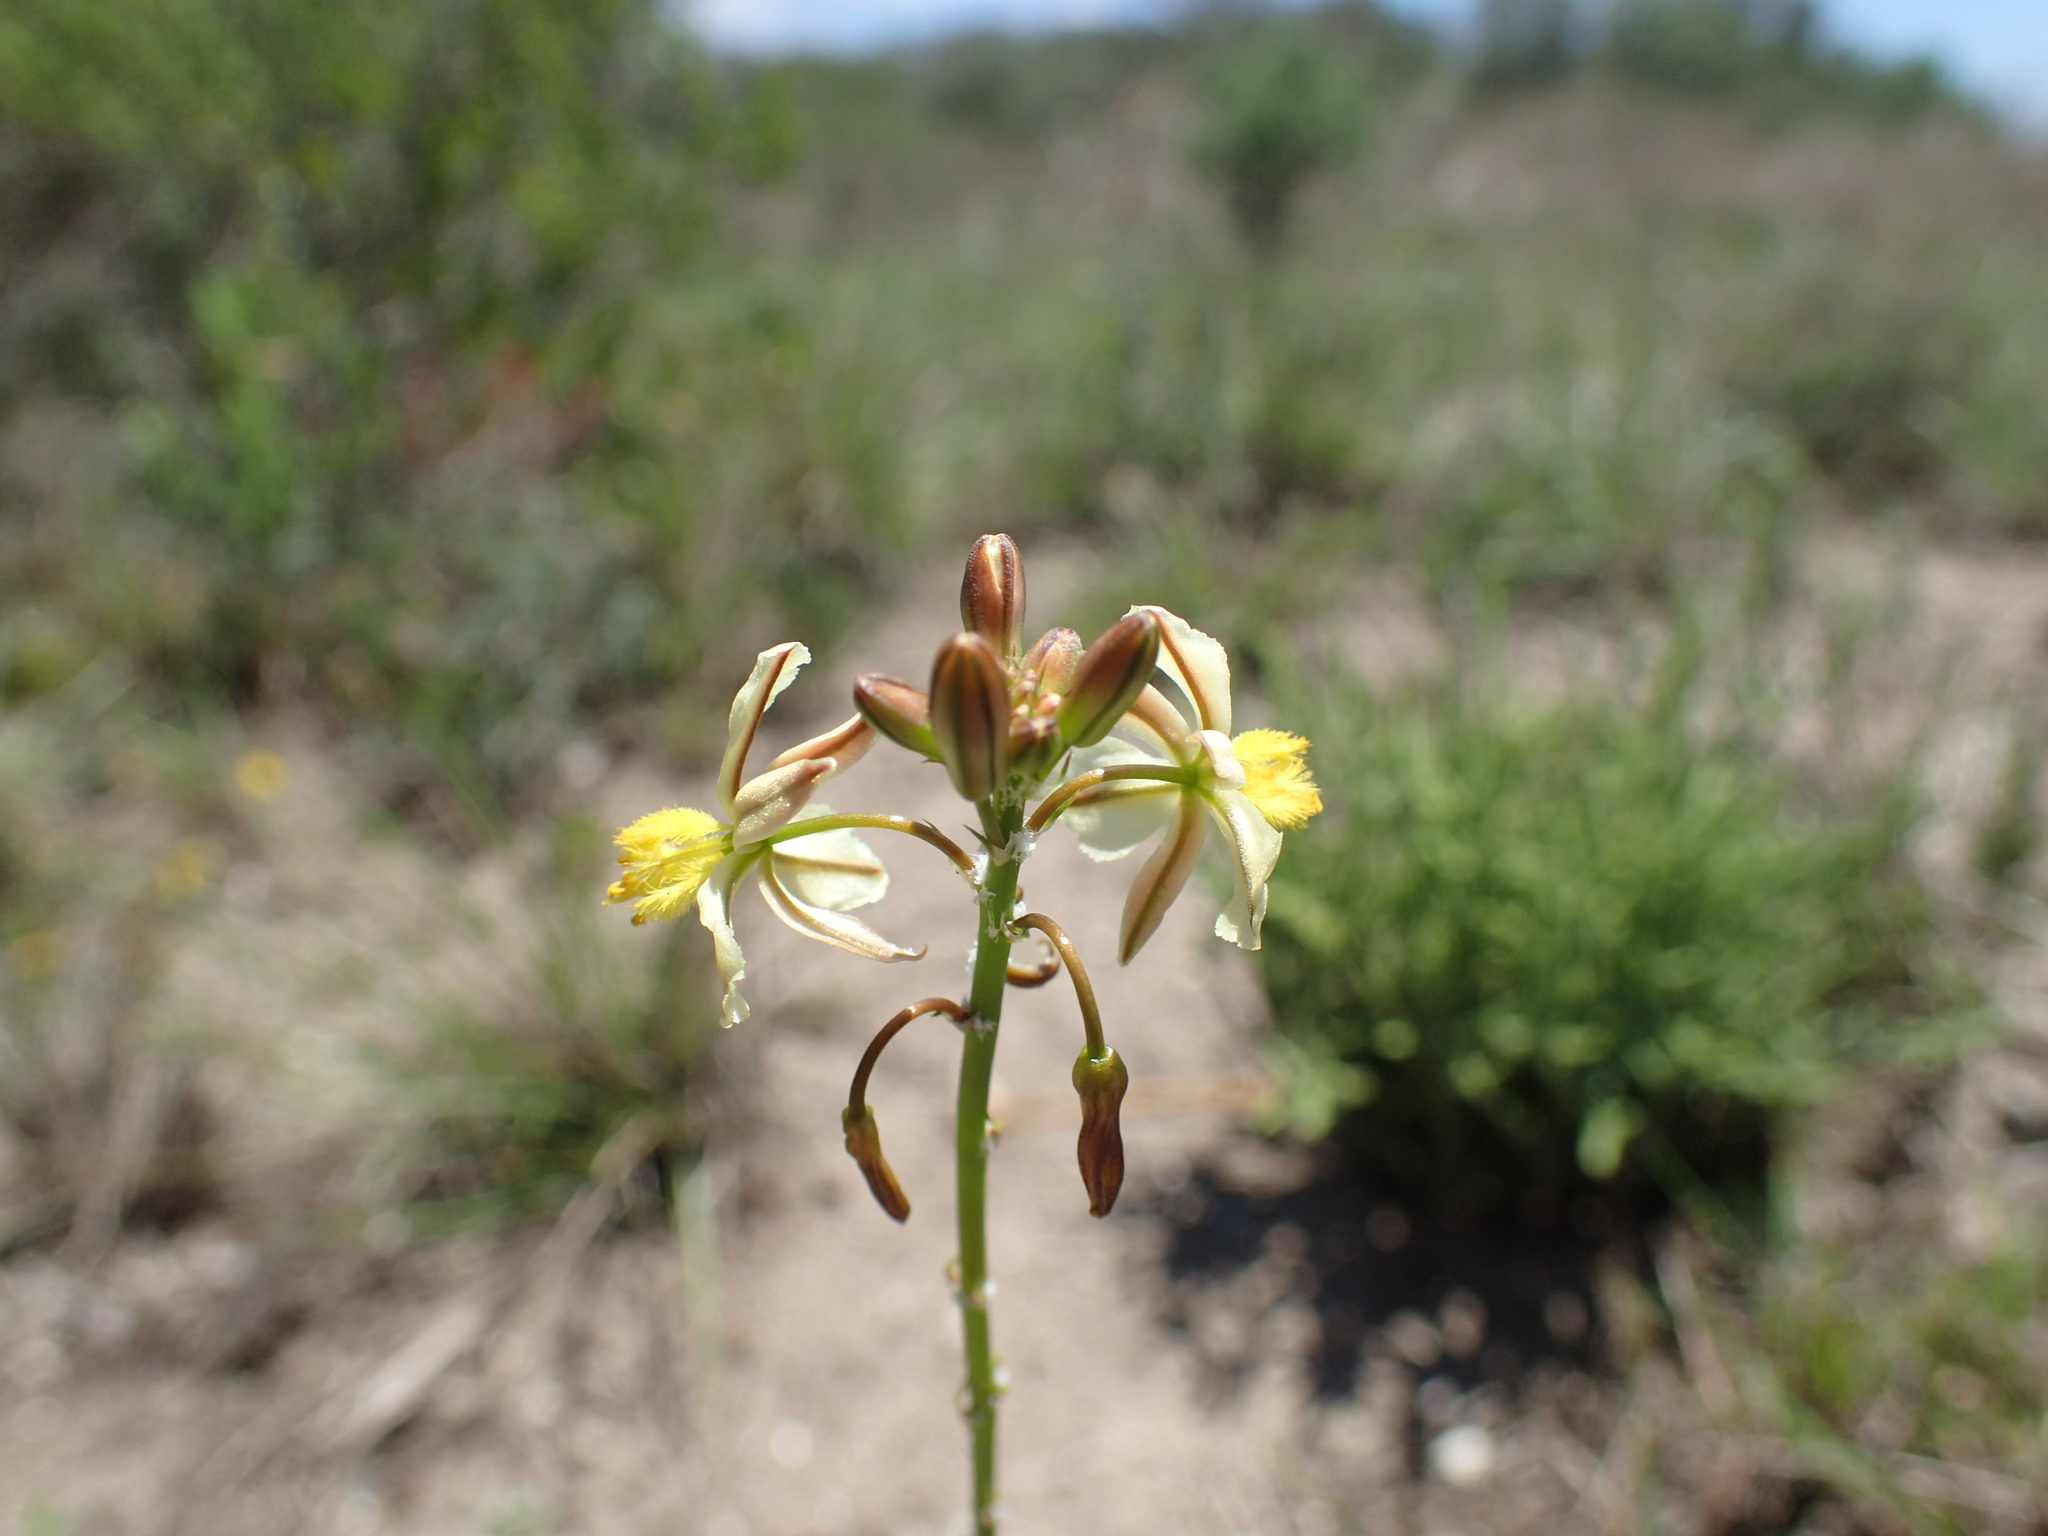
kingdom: Plantae
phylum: Tracheophyta
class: Liliopsida
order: Asparagales
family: Asphodelaceae
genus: Bulbine
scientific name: Bulbine frutescens
